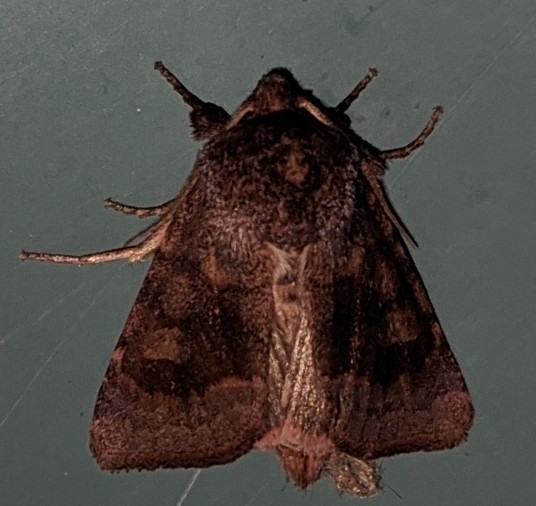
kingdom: Animalia
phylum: Arthropoda
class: Insecta
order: Lepidoptera
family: Noctuidae
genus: Nephelodes
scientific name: Nephelodes minians
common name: Bronzed cutworm
